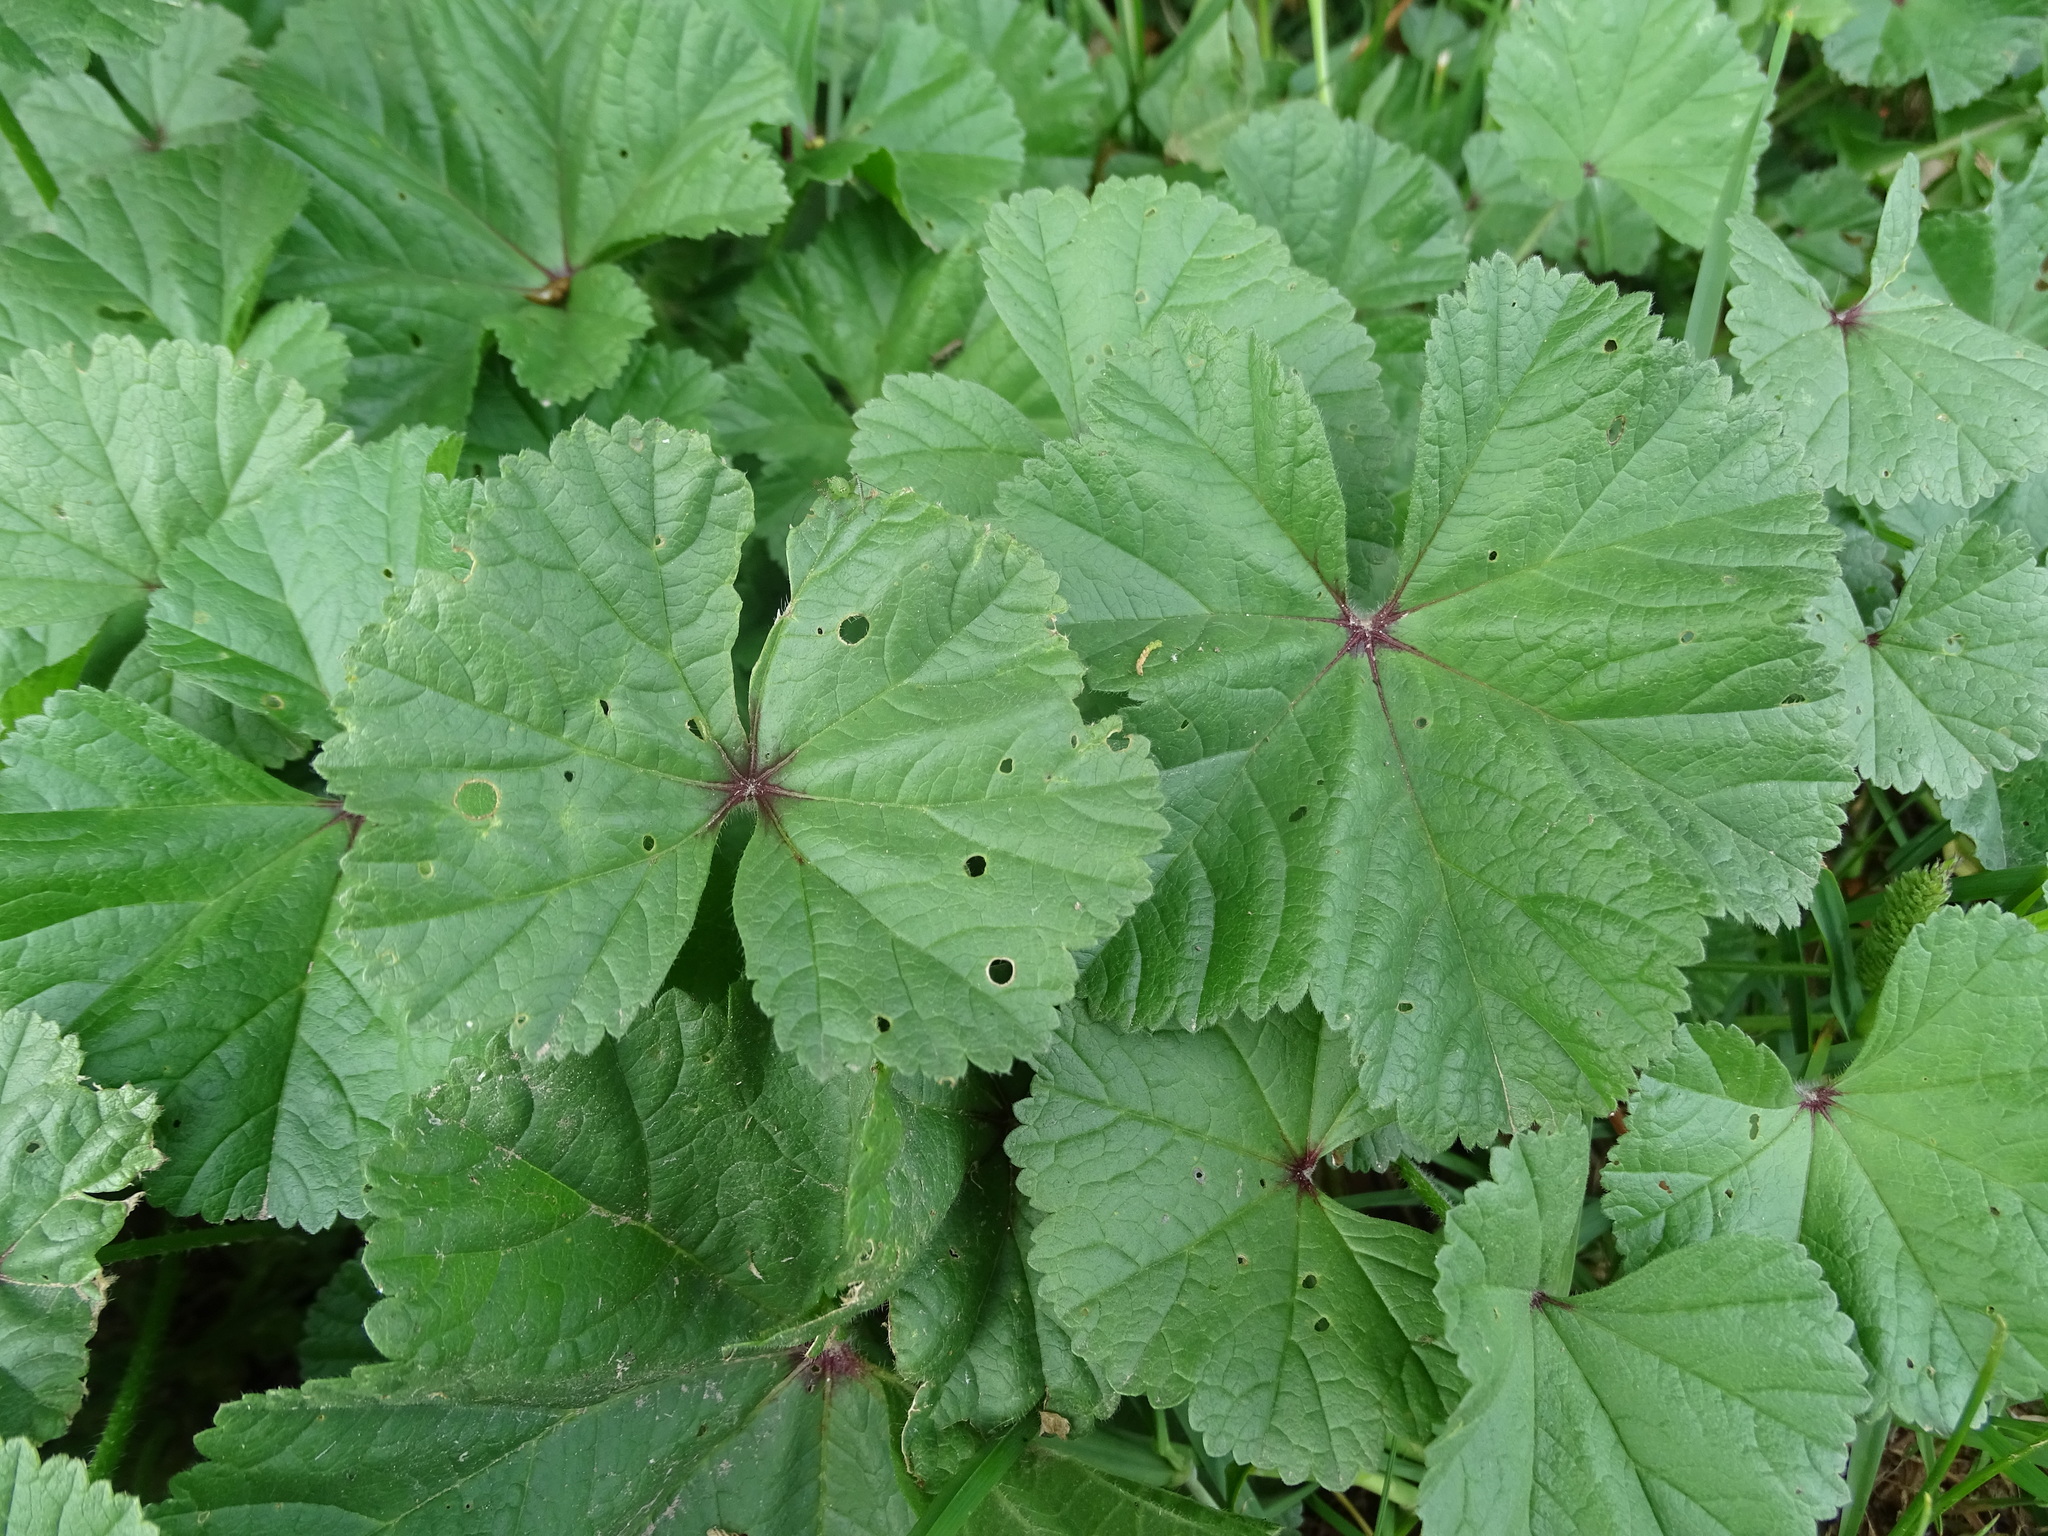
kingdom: Plantae
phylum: Tracheophyta
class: Magnoliopsida
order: Malvales
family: Malvaceae
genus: Malva
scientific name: Malva sylvestris
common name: Common mallow
